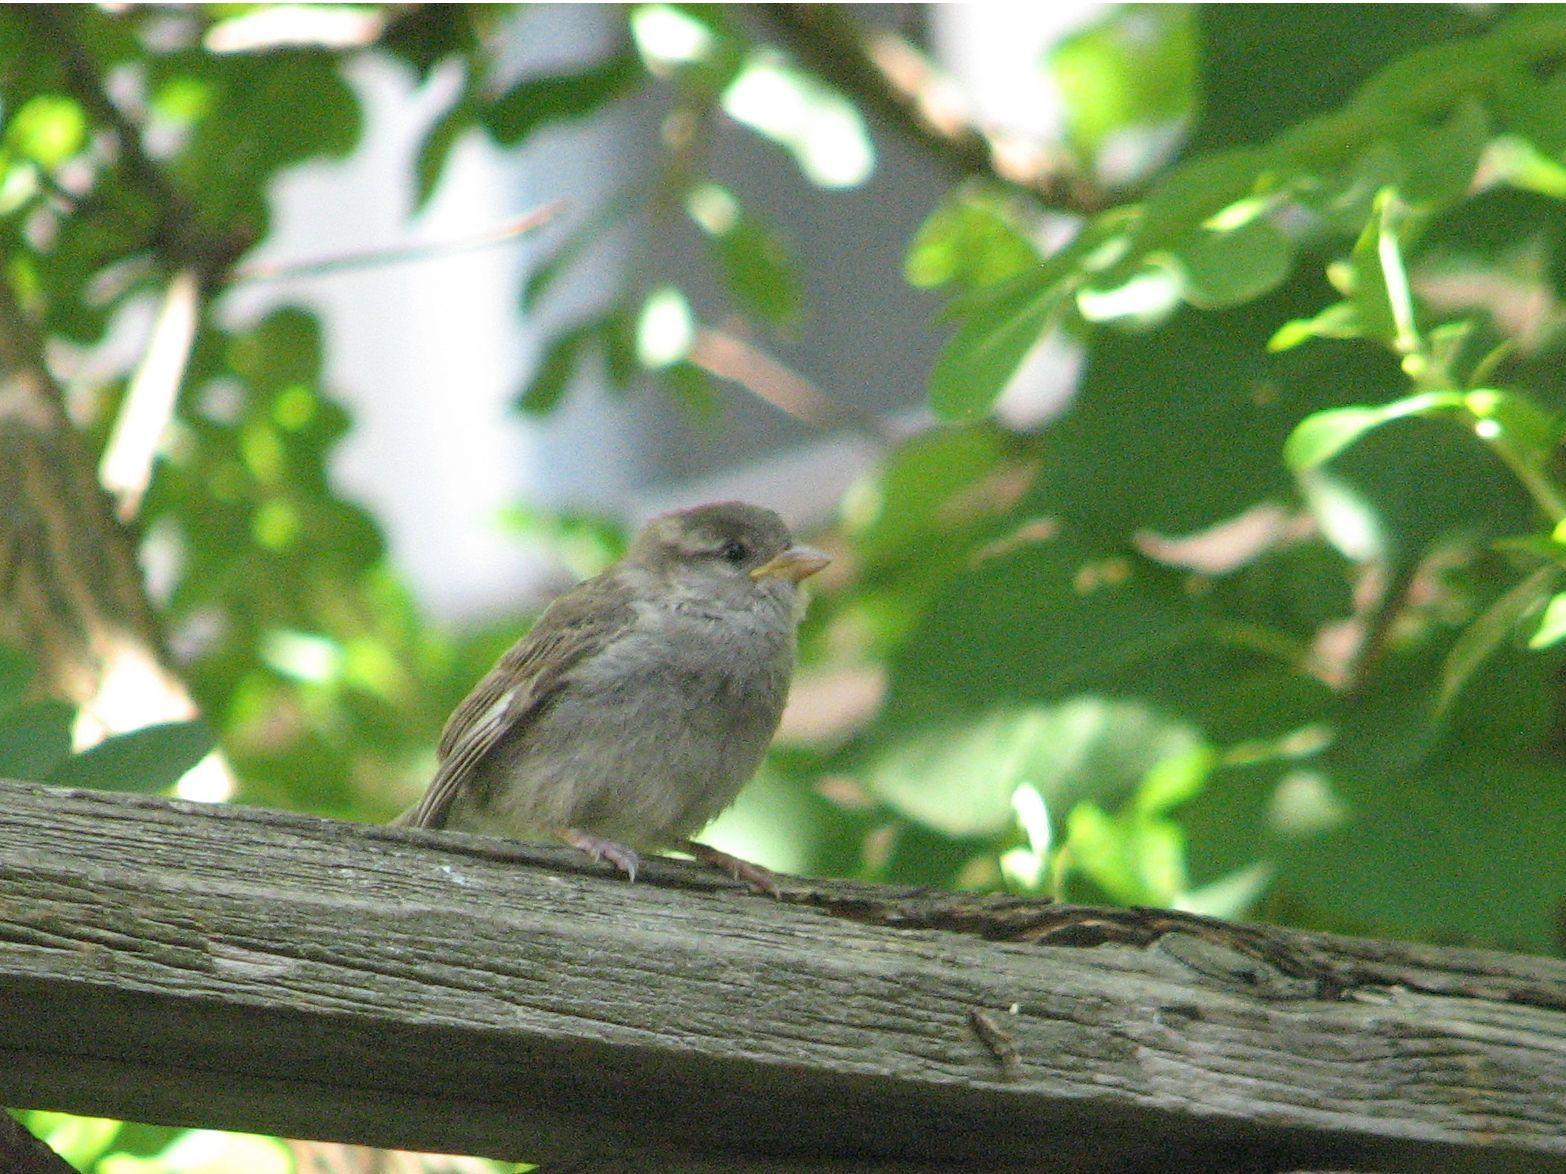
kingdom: Animalia
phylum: Chordata
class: Aves
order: Passeriformes
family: Passeridae
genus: Passer
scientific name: Passer domesticus
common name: House sparrow
